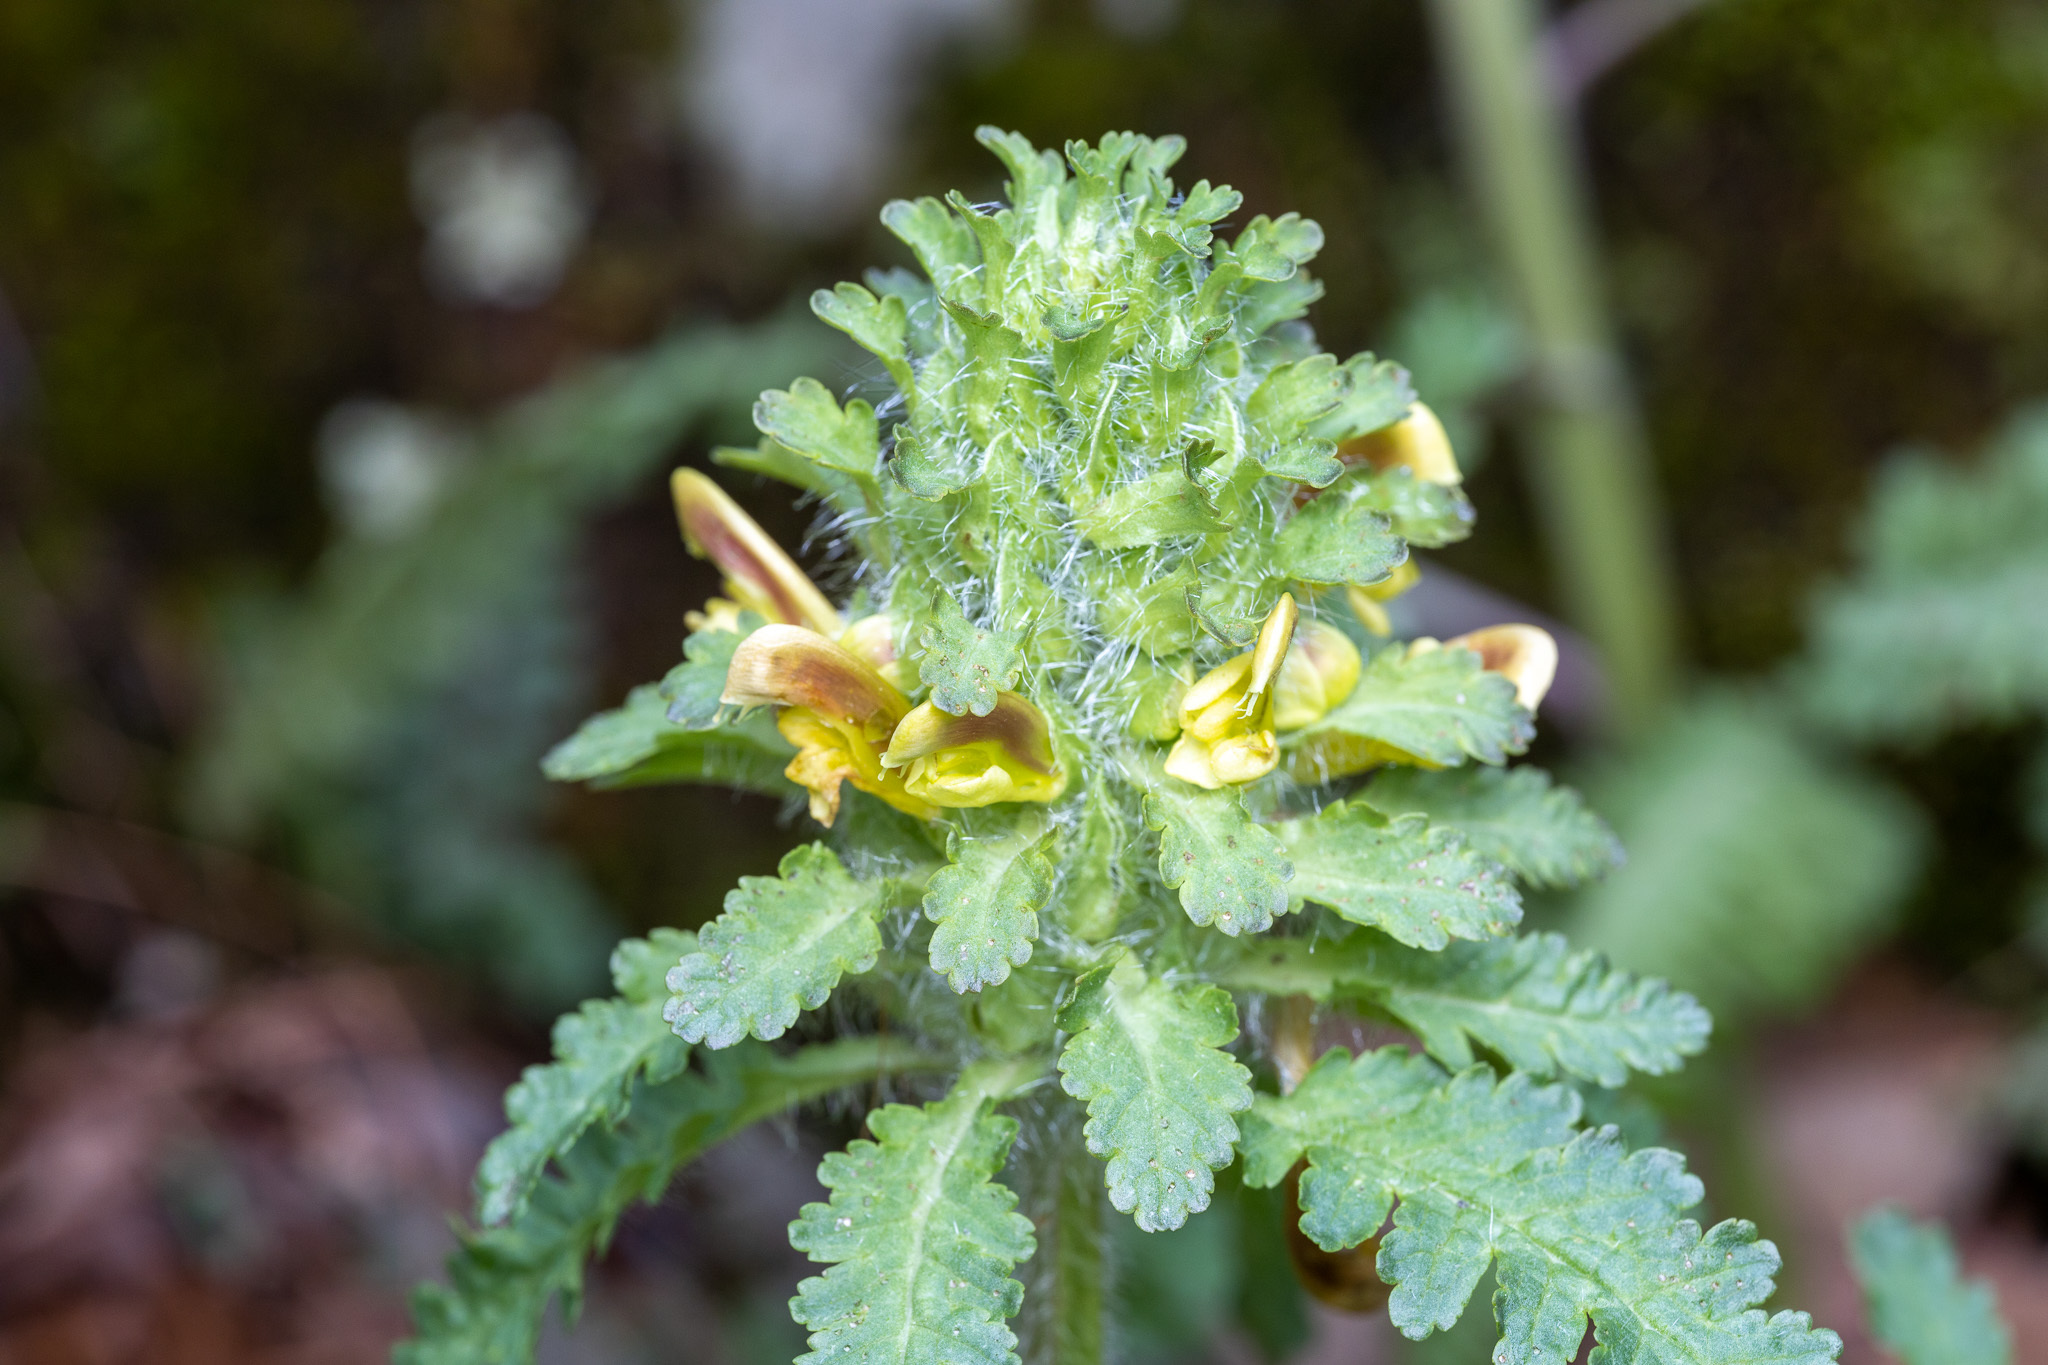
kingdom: Plantae
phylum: Tracheophyta
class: Magnoliopsida
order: Lamiales
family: Orobanchaceae
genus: Pedicularis
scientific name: Pedicularis canadensis
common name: Early lousewort
